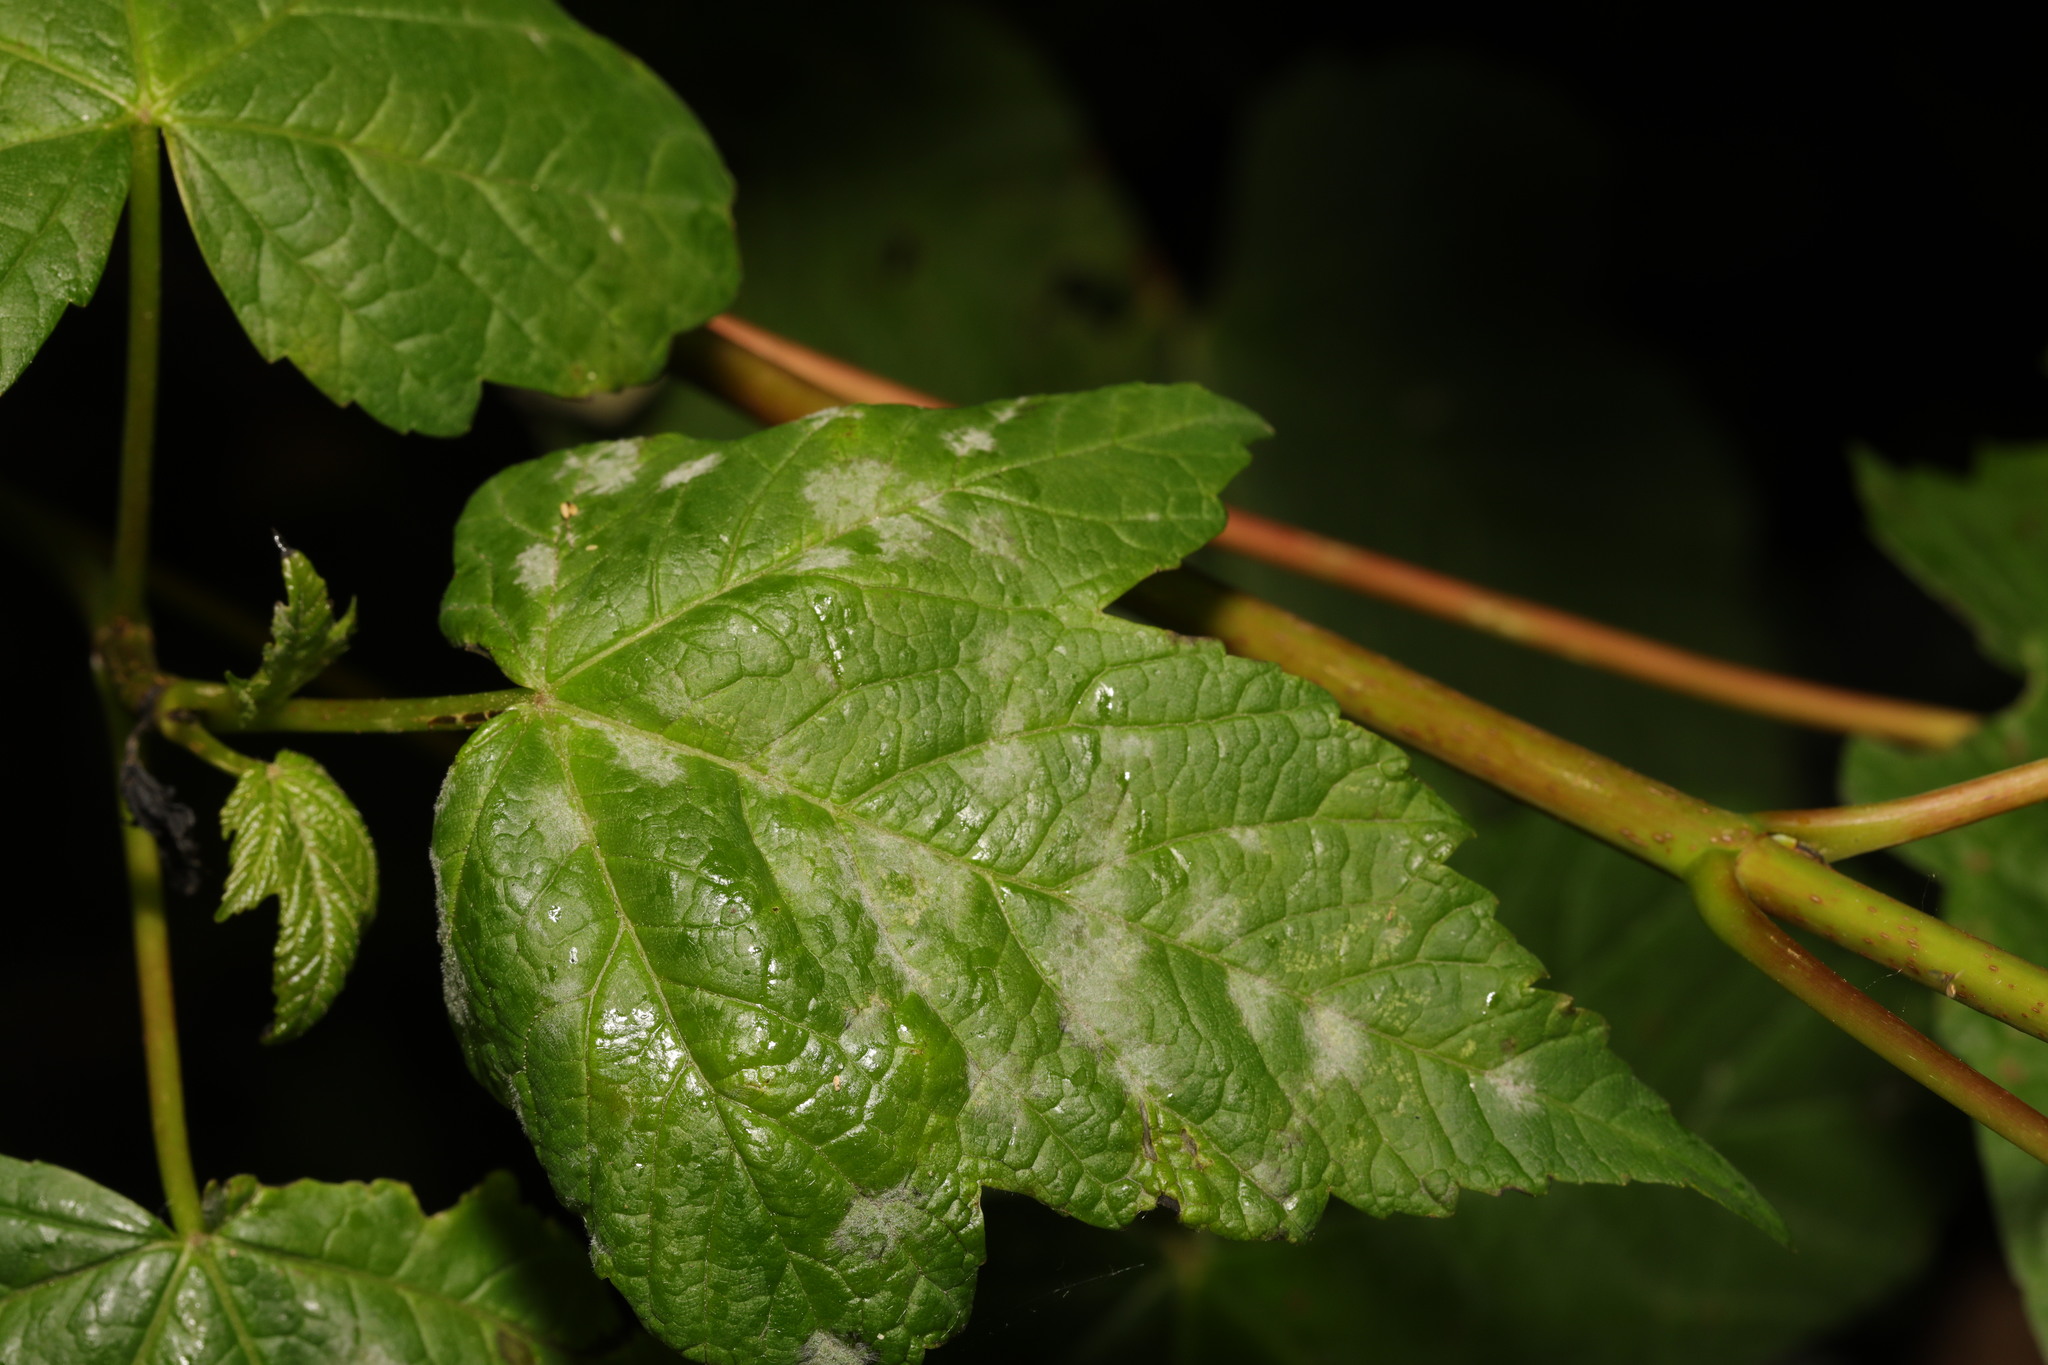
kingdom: Fungi
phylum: Ascomycota
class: Leotiomycetes
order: Helotiales
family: Erysiphaceae
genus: Sawadaea
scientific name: Sawadaea bicornis
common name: Maple mildew
